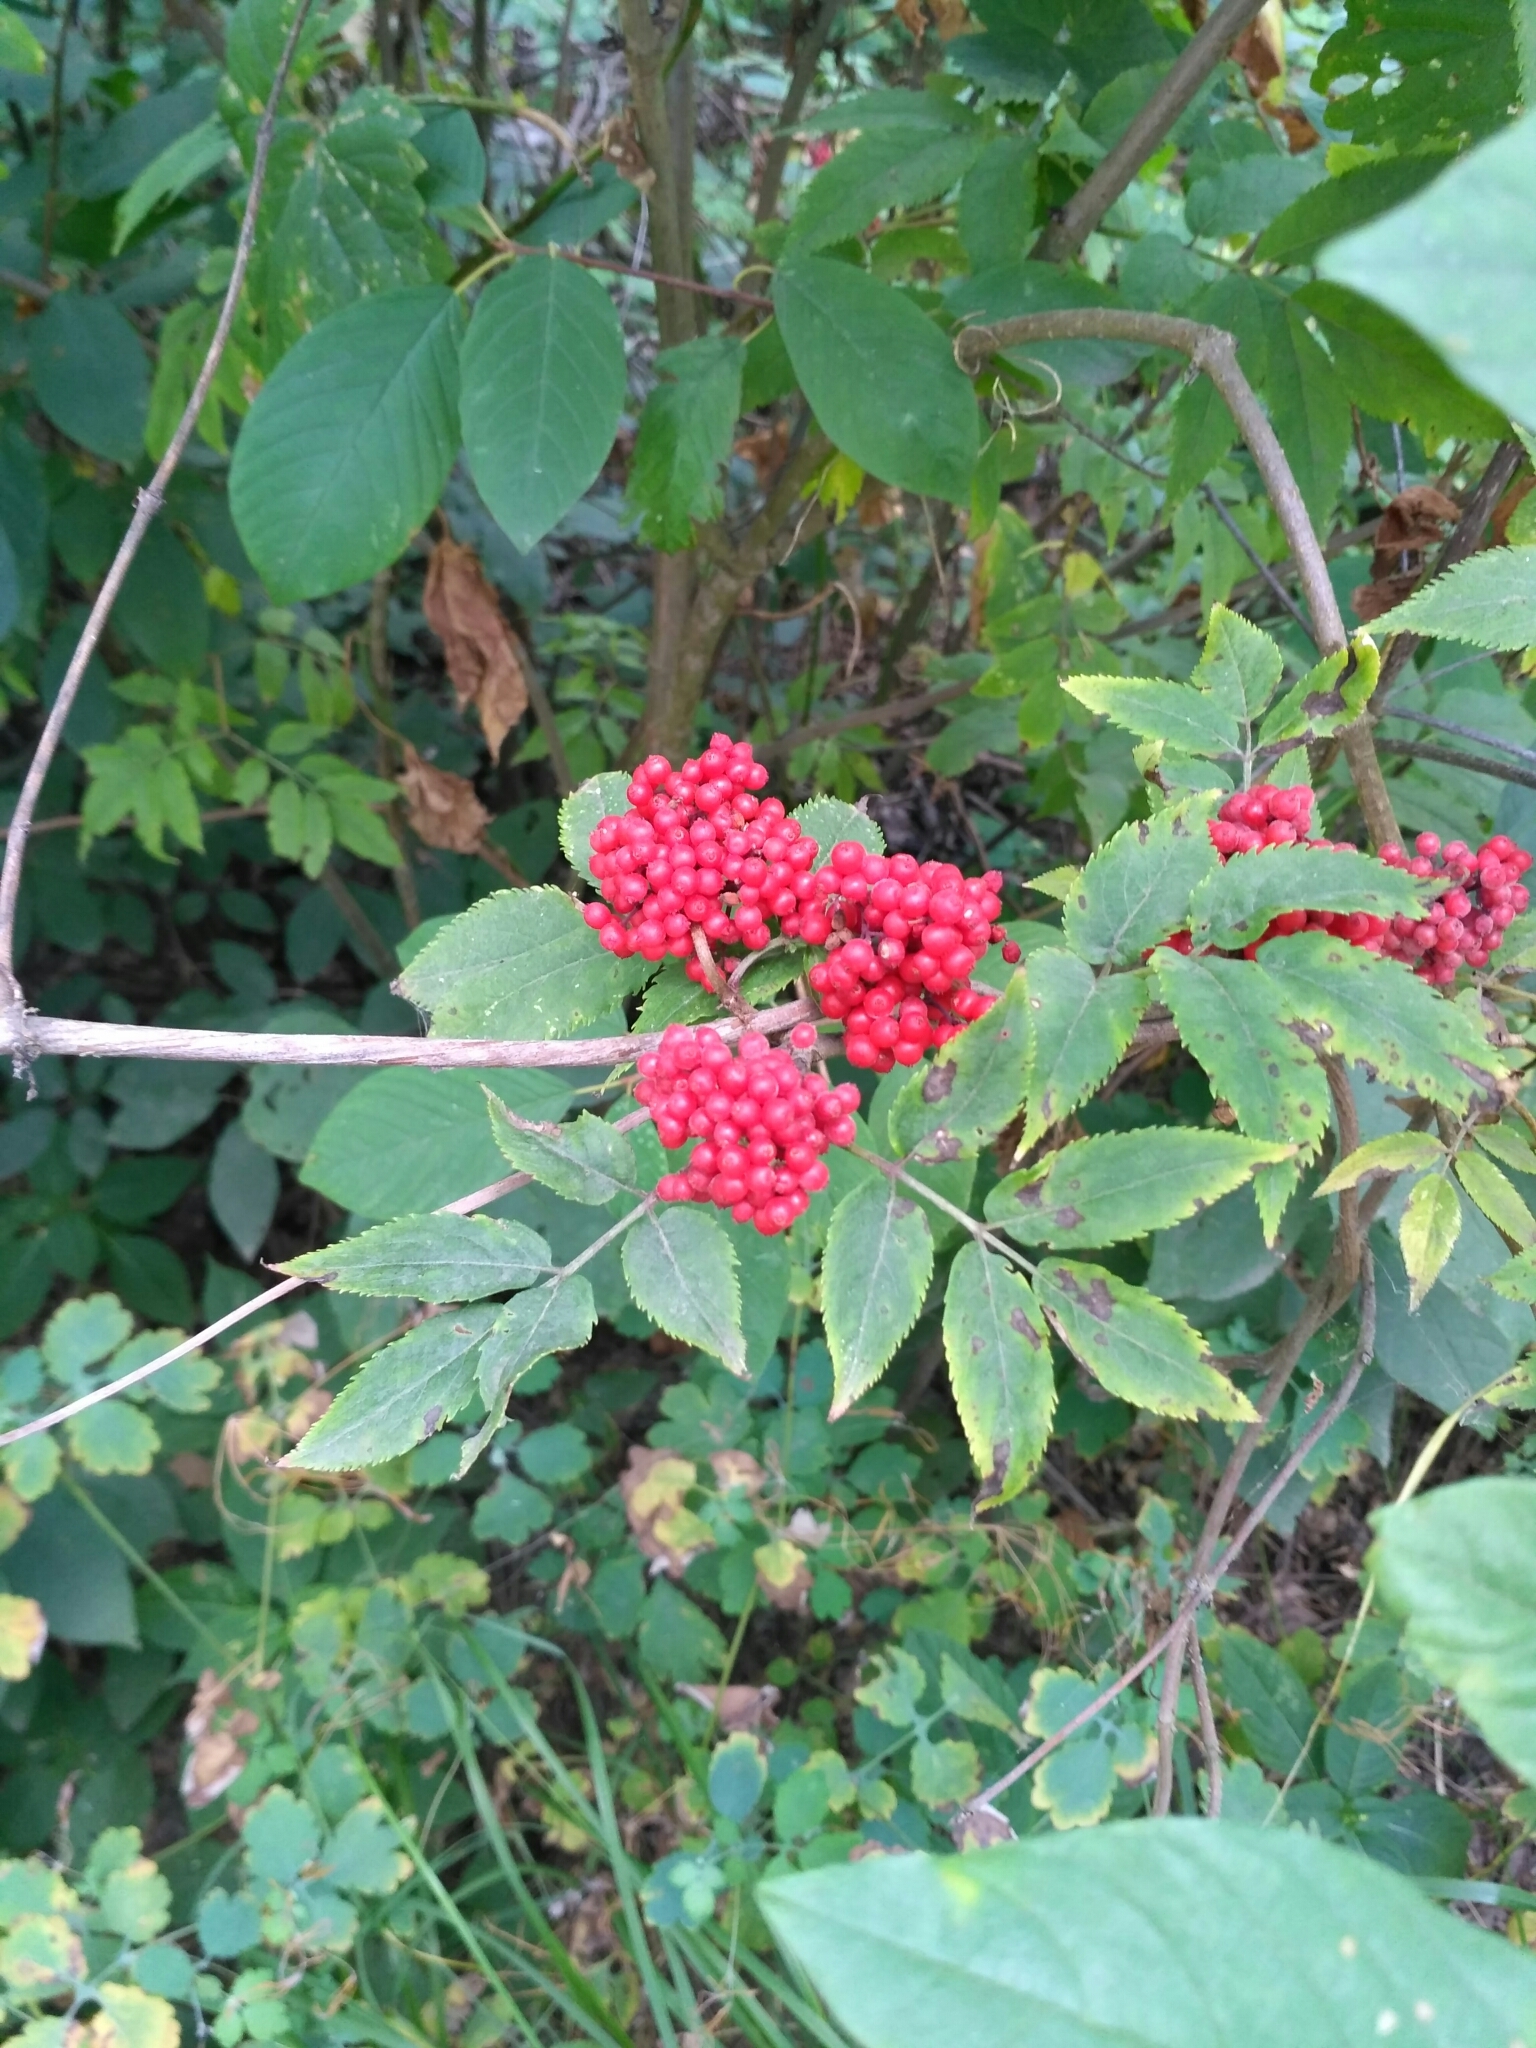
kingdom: Plantae
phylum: Tracheophyta
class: Magnoliopsida
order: Dipsacales
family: Viburnaceae
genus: Sambucus
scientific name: Sambucus racemosa
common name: Red-berried elder
